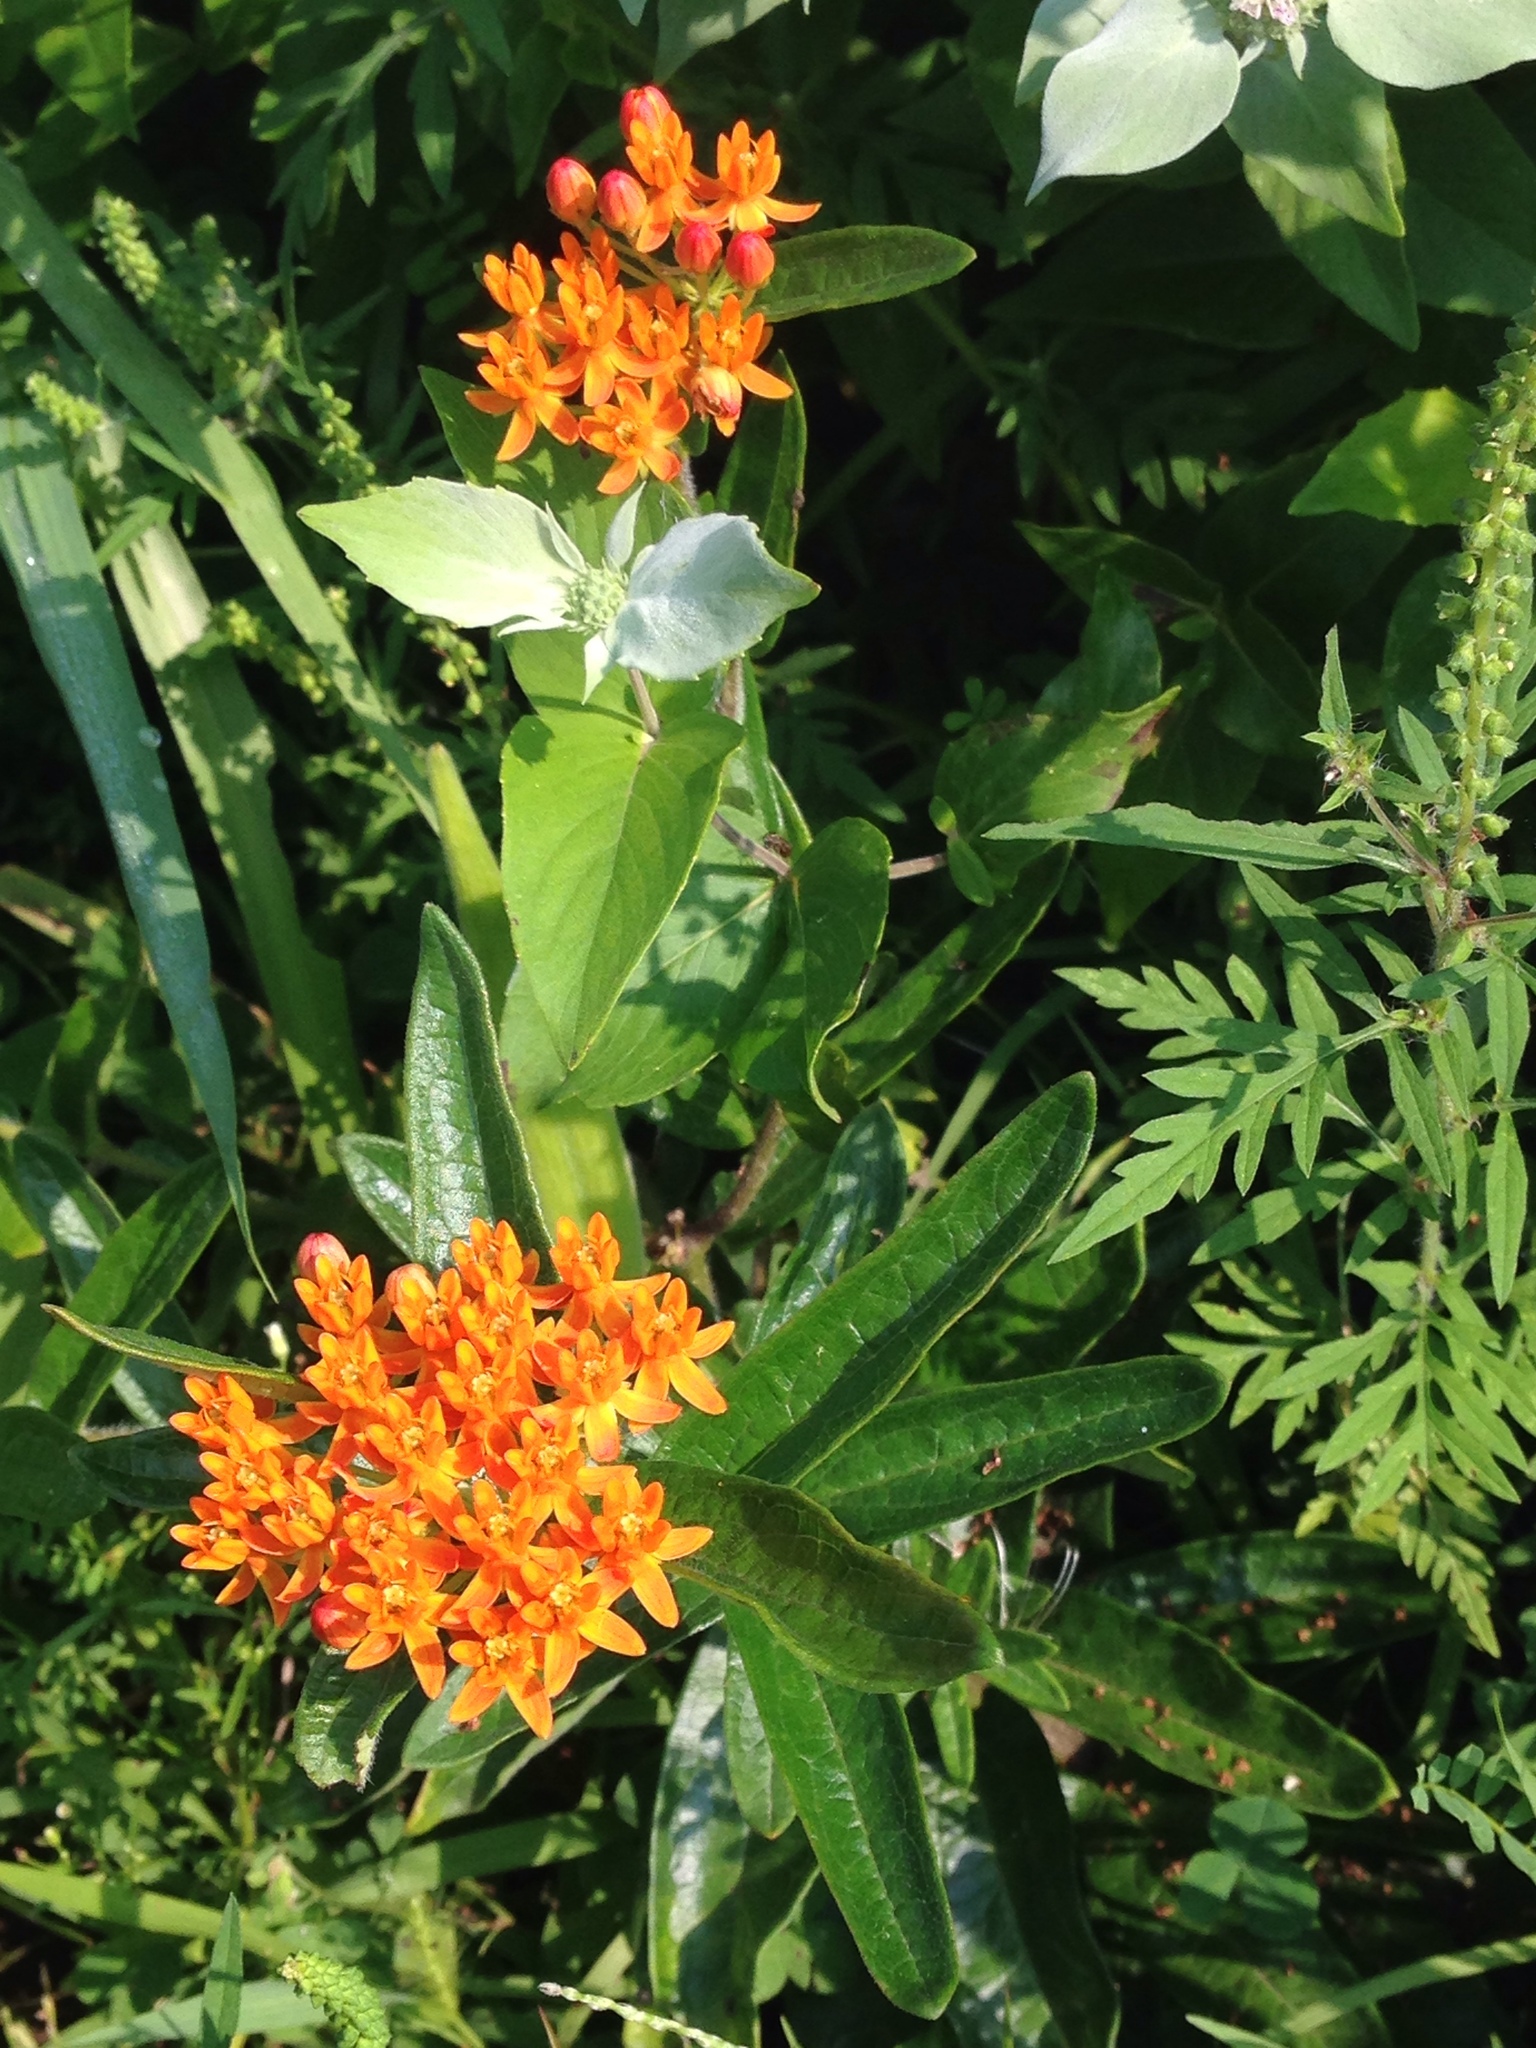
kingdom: Plantae
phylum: Tracheophyta
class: Magnoliopsida
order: Gentianales
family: Apocynaceae
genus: Asclepias
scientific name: Asclepias tuberosa
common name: Butterfly milkweed
